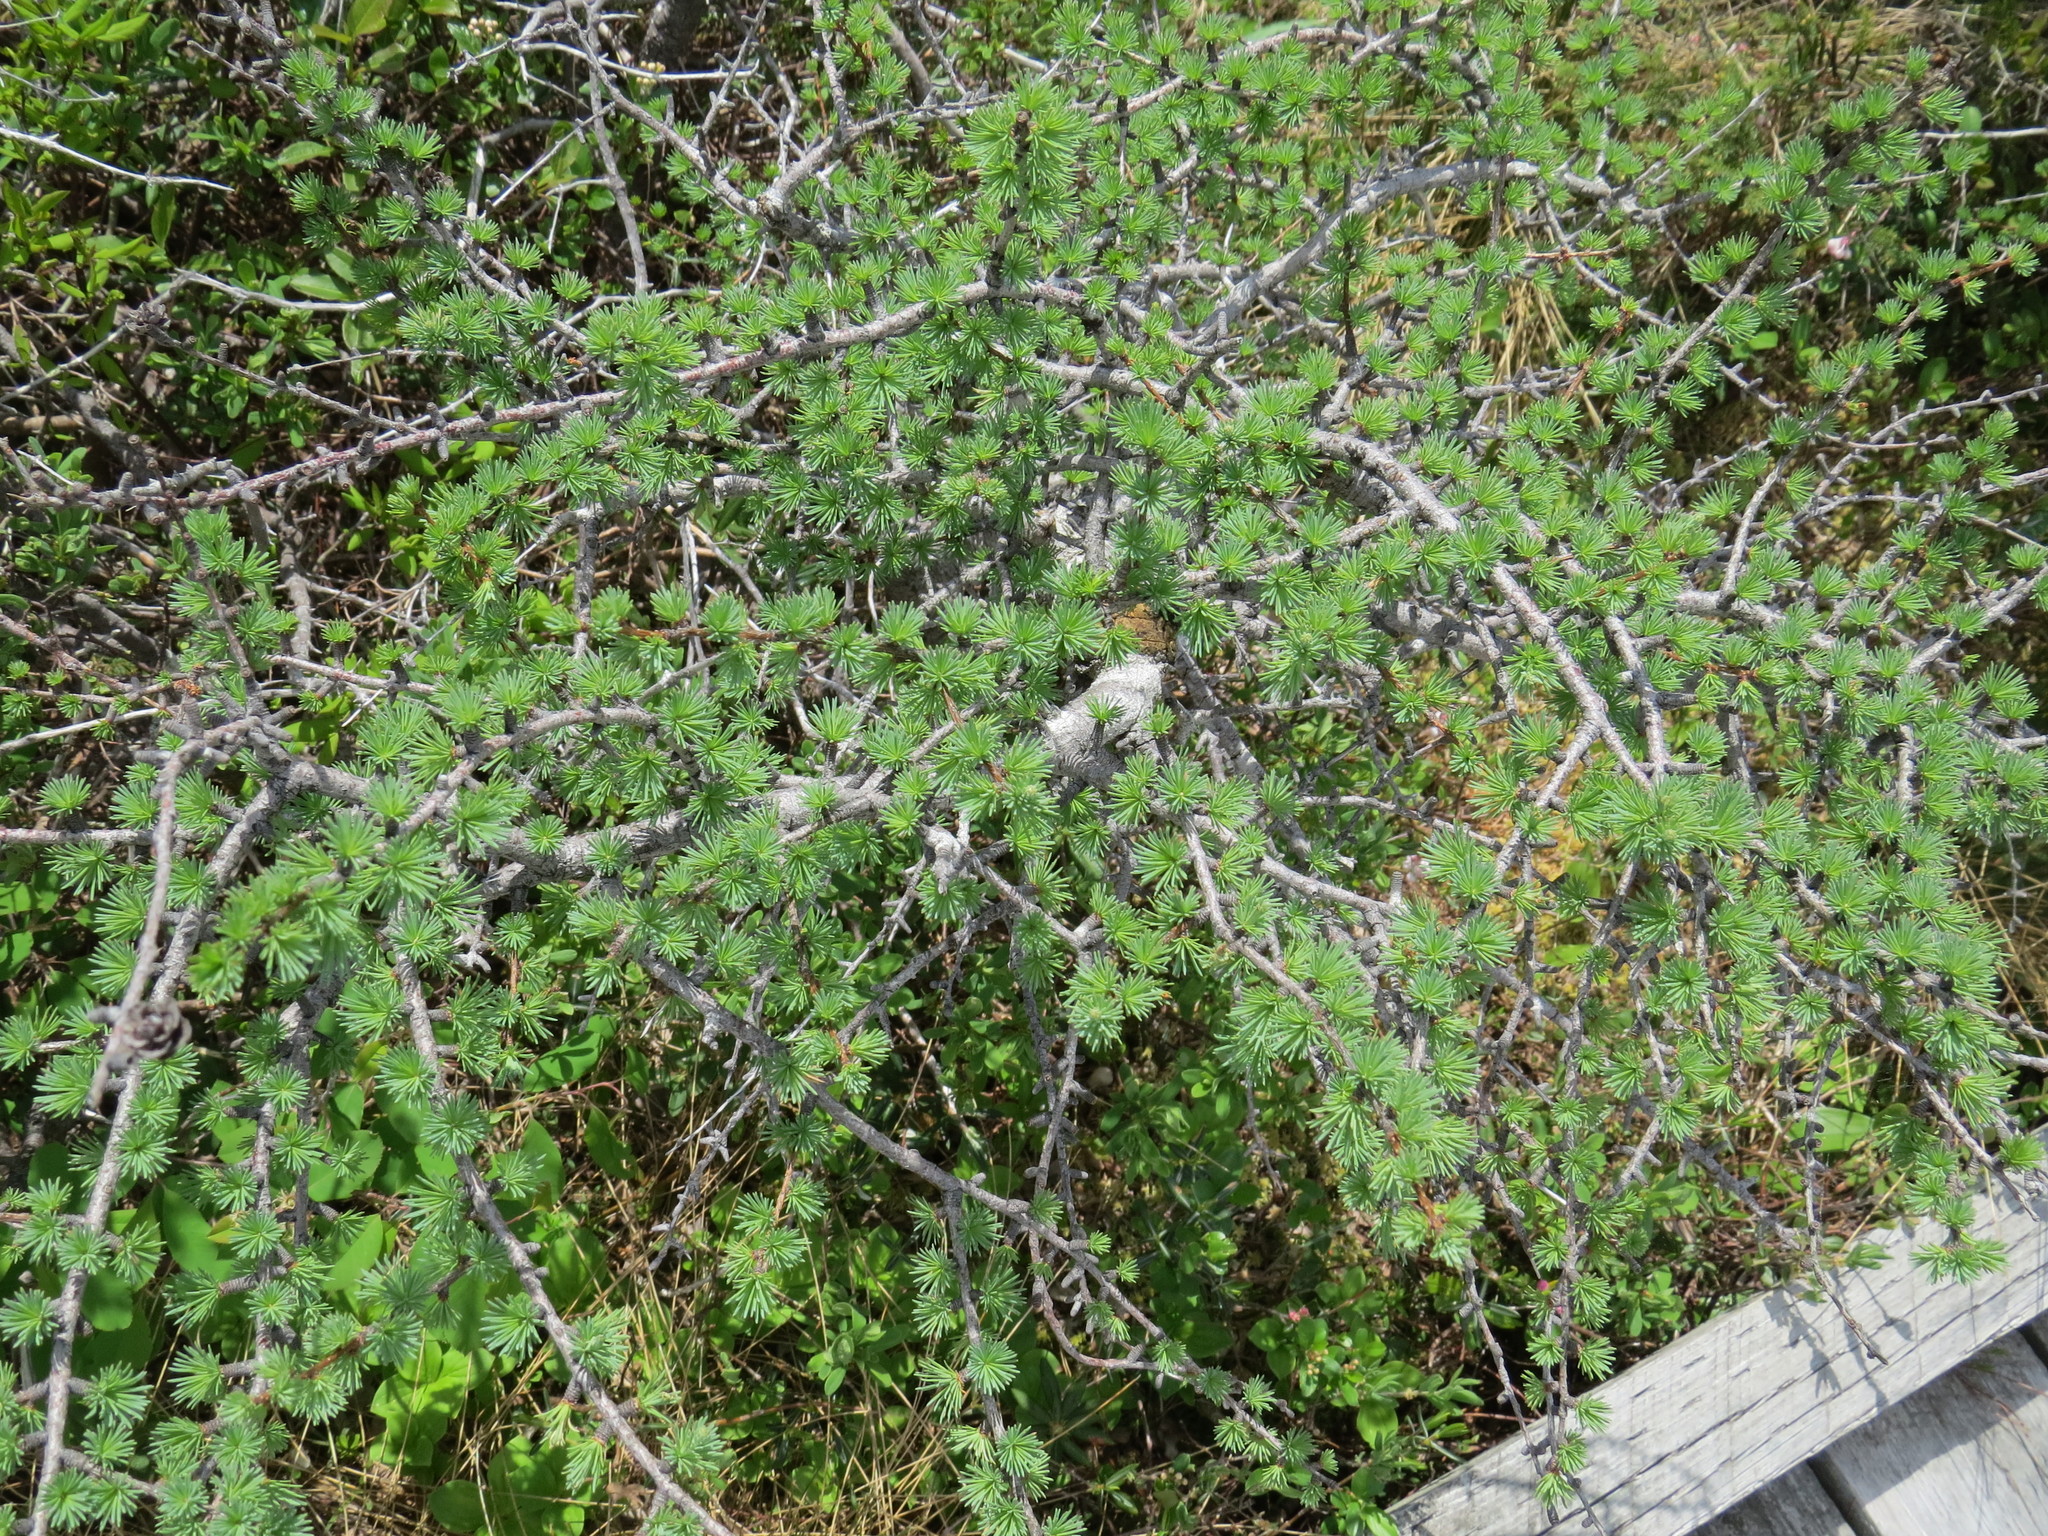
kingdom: Plantae
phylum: Tracheophyta
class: Pinopsida
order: Pinales
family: Pinaceae
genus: Larix
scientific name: Larix laricina
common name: American larch
